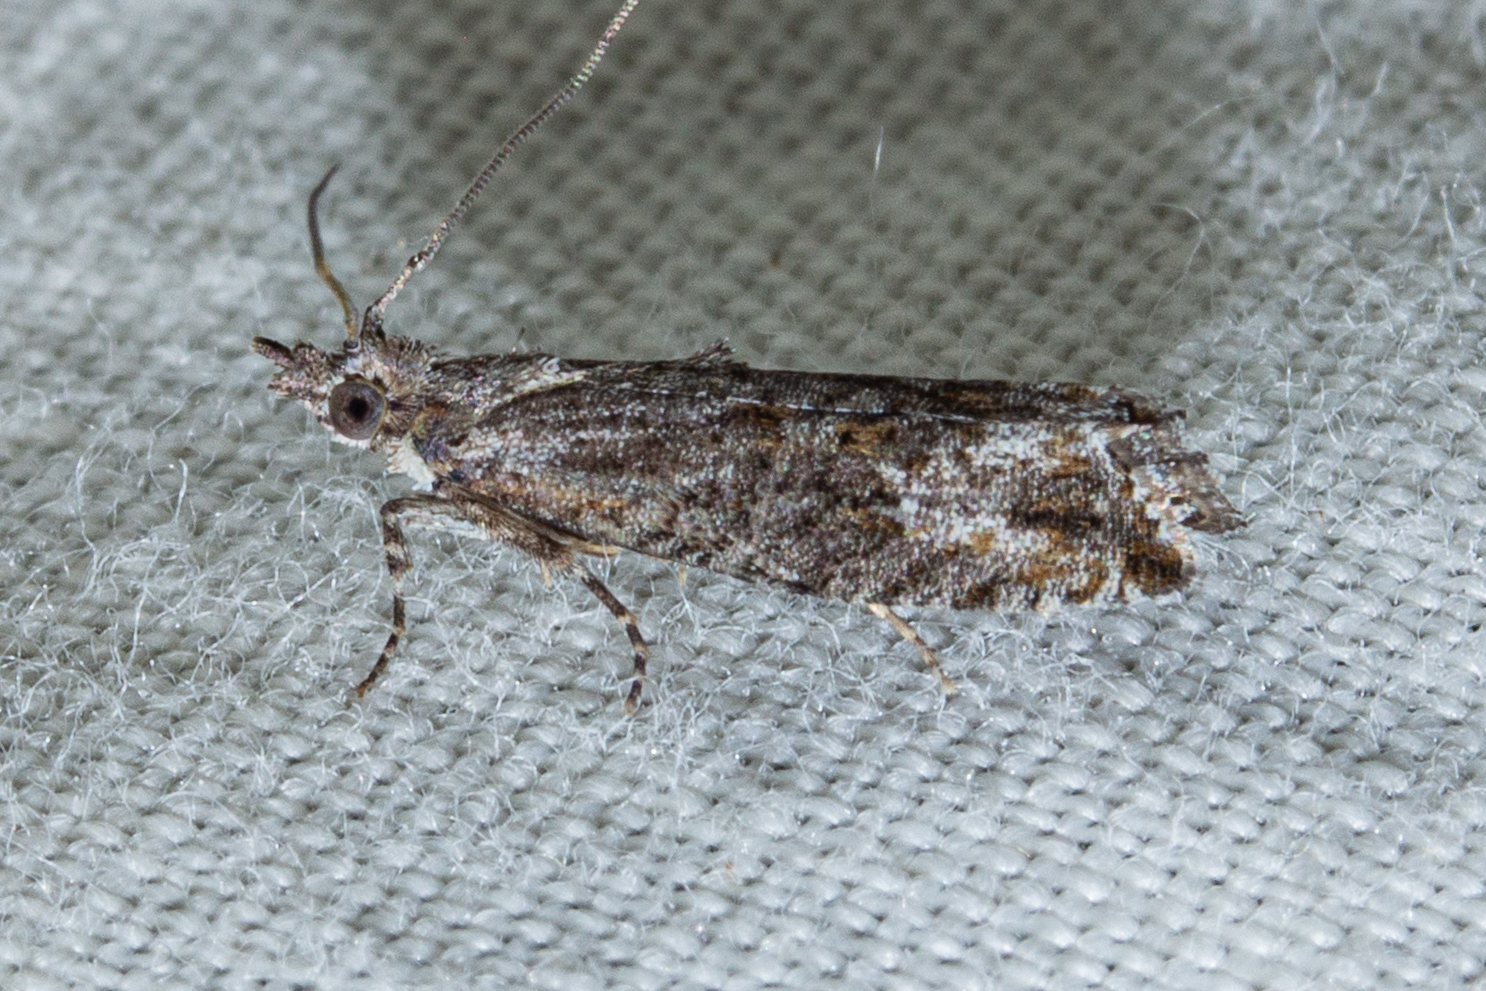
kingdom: Animalia
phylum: Arthropoda
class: Insecta
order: Lepidoptera
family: Tortricidae
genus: Strepsicrates
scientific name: Strepsicrates ejectana
